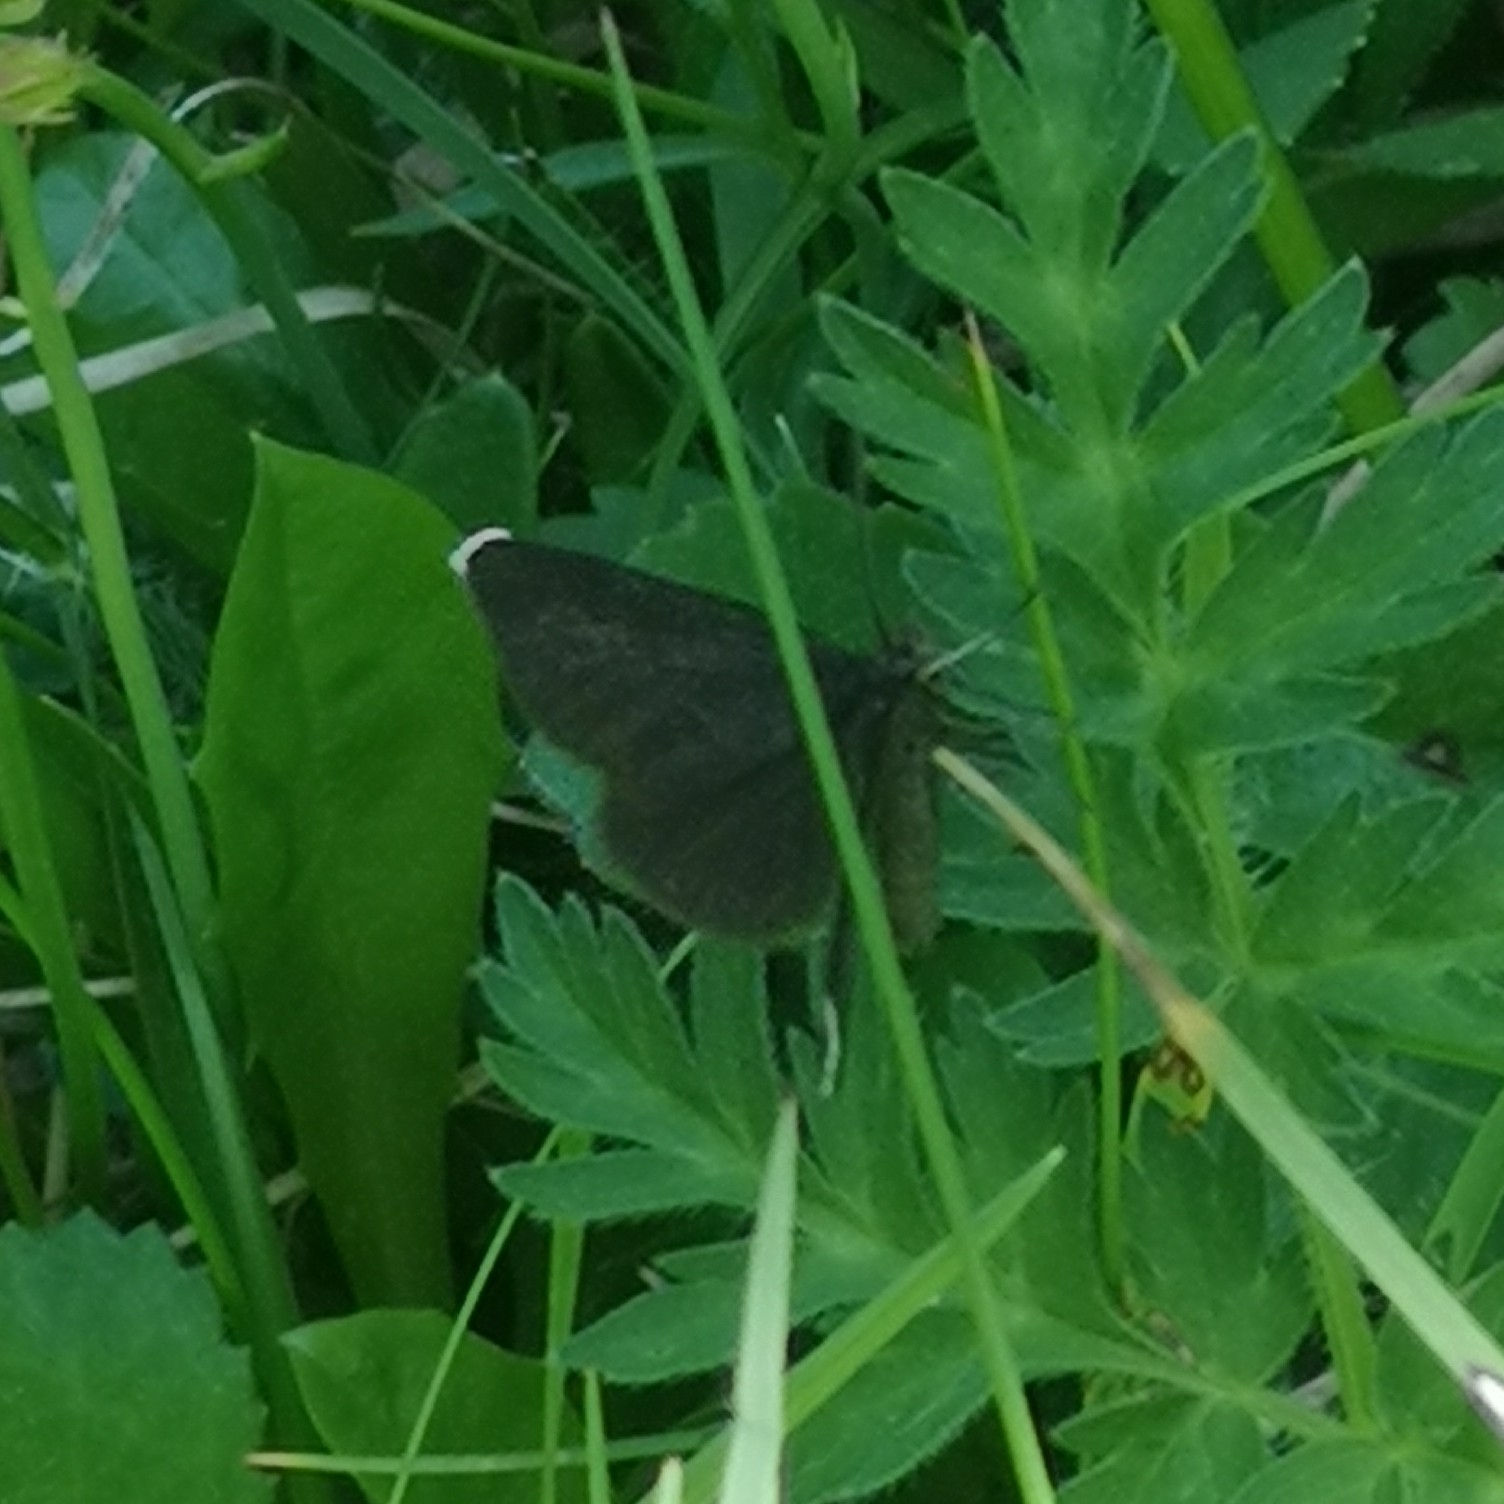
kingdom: Animalia
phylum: Arthropoda
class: Insecta
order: Lepidoptera
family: Geometridae
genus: Odezia
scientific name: Odezia atrata
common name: Chimney sweeper
